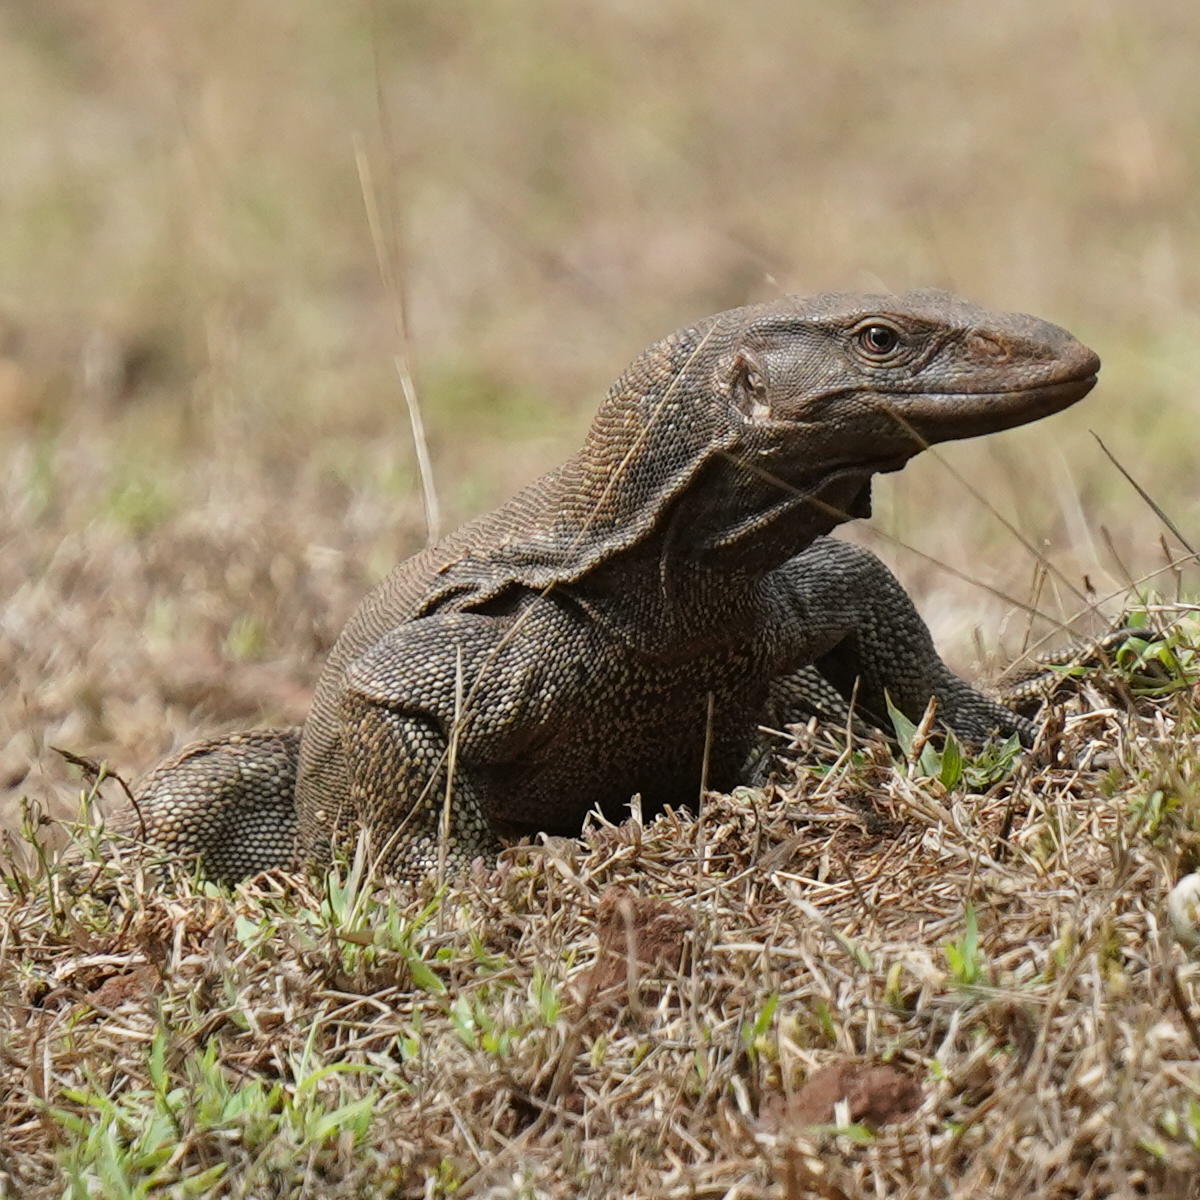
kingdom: Animalia
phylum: Chordata
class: Squamata
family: Varanidae
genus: Varanus
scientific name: Varanus bengalensis
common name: Bengal monitor
